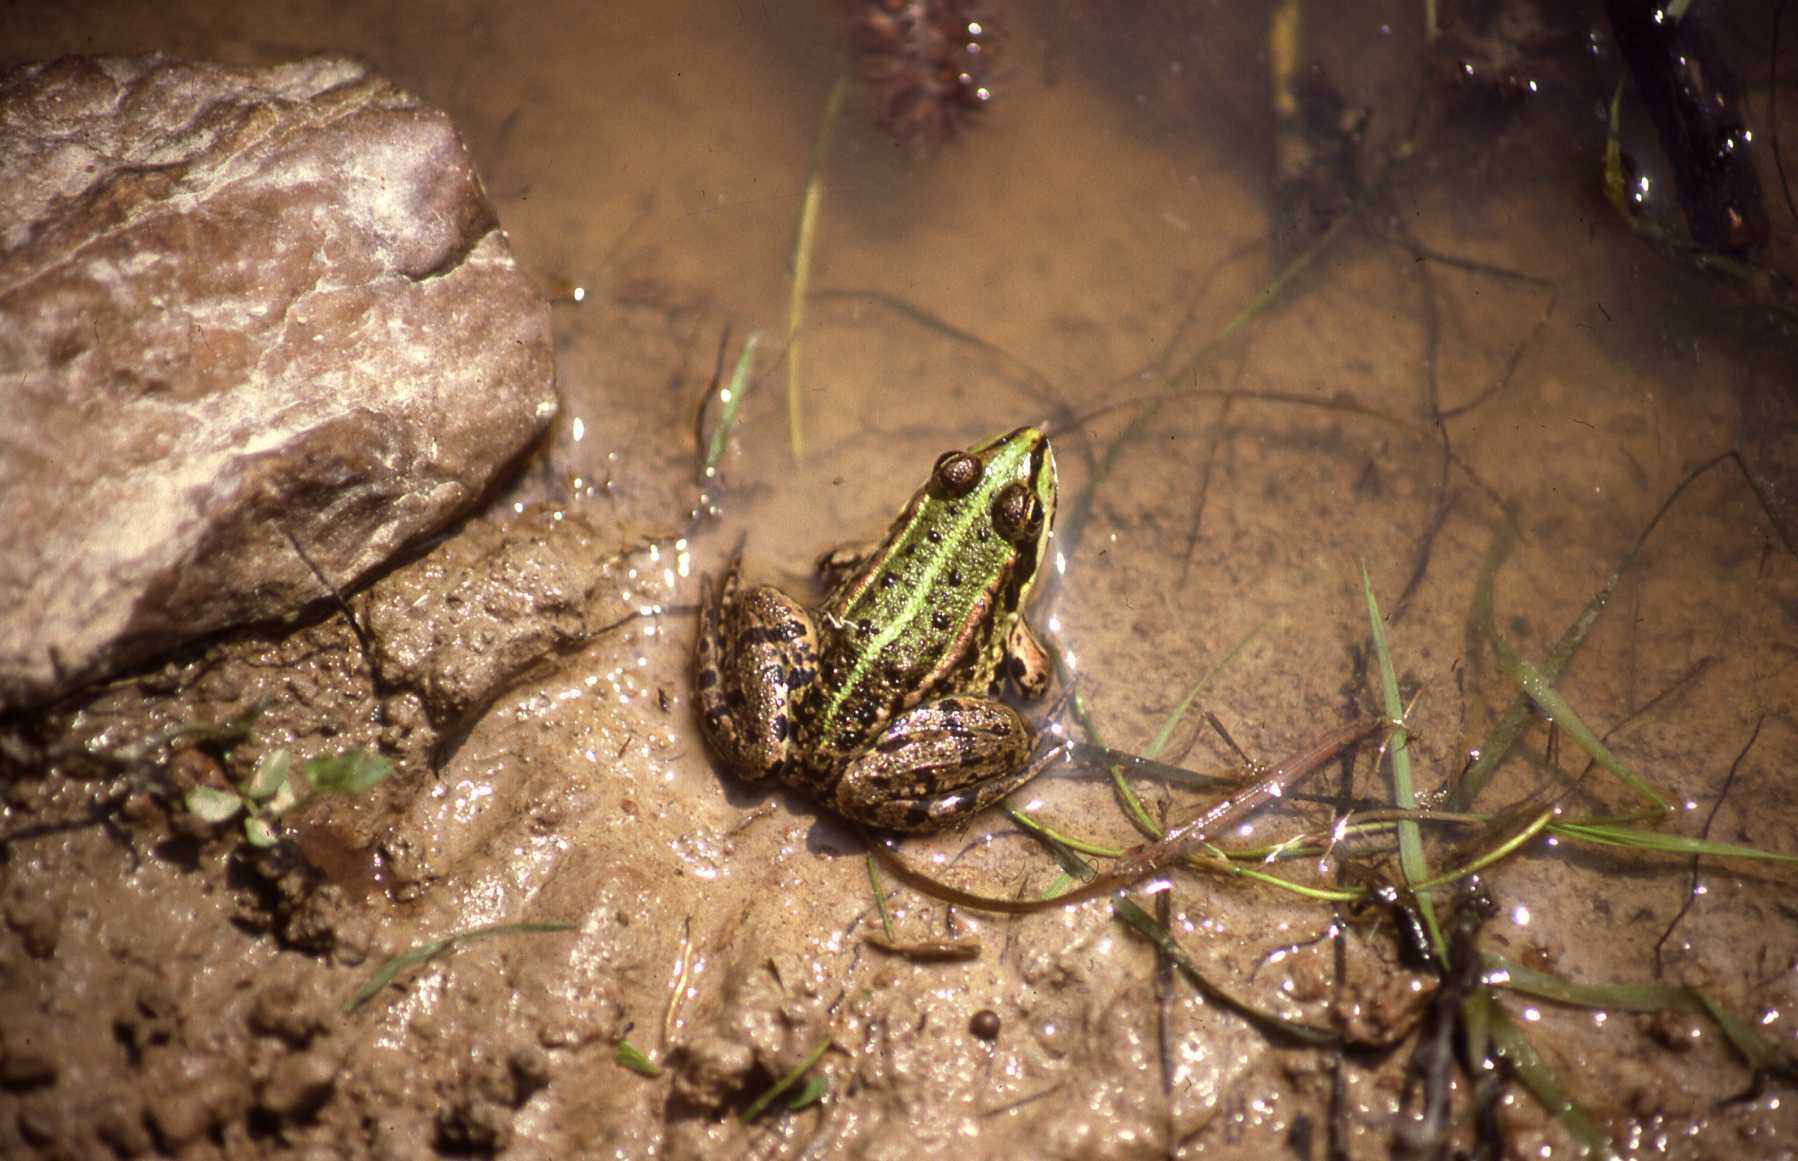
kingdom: Animalia
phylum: Chordata
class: Amphibia
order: Anura
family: Ranidae
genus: Pelophylax
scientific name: Pelophylax
